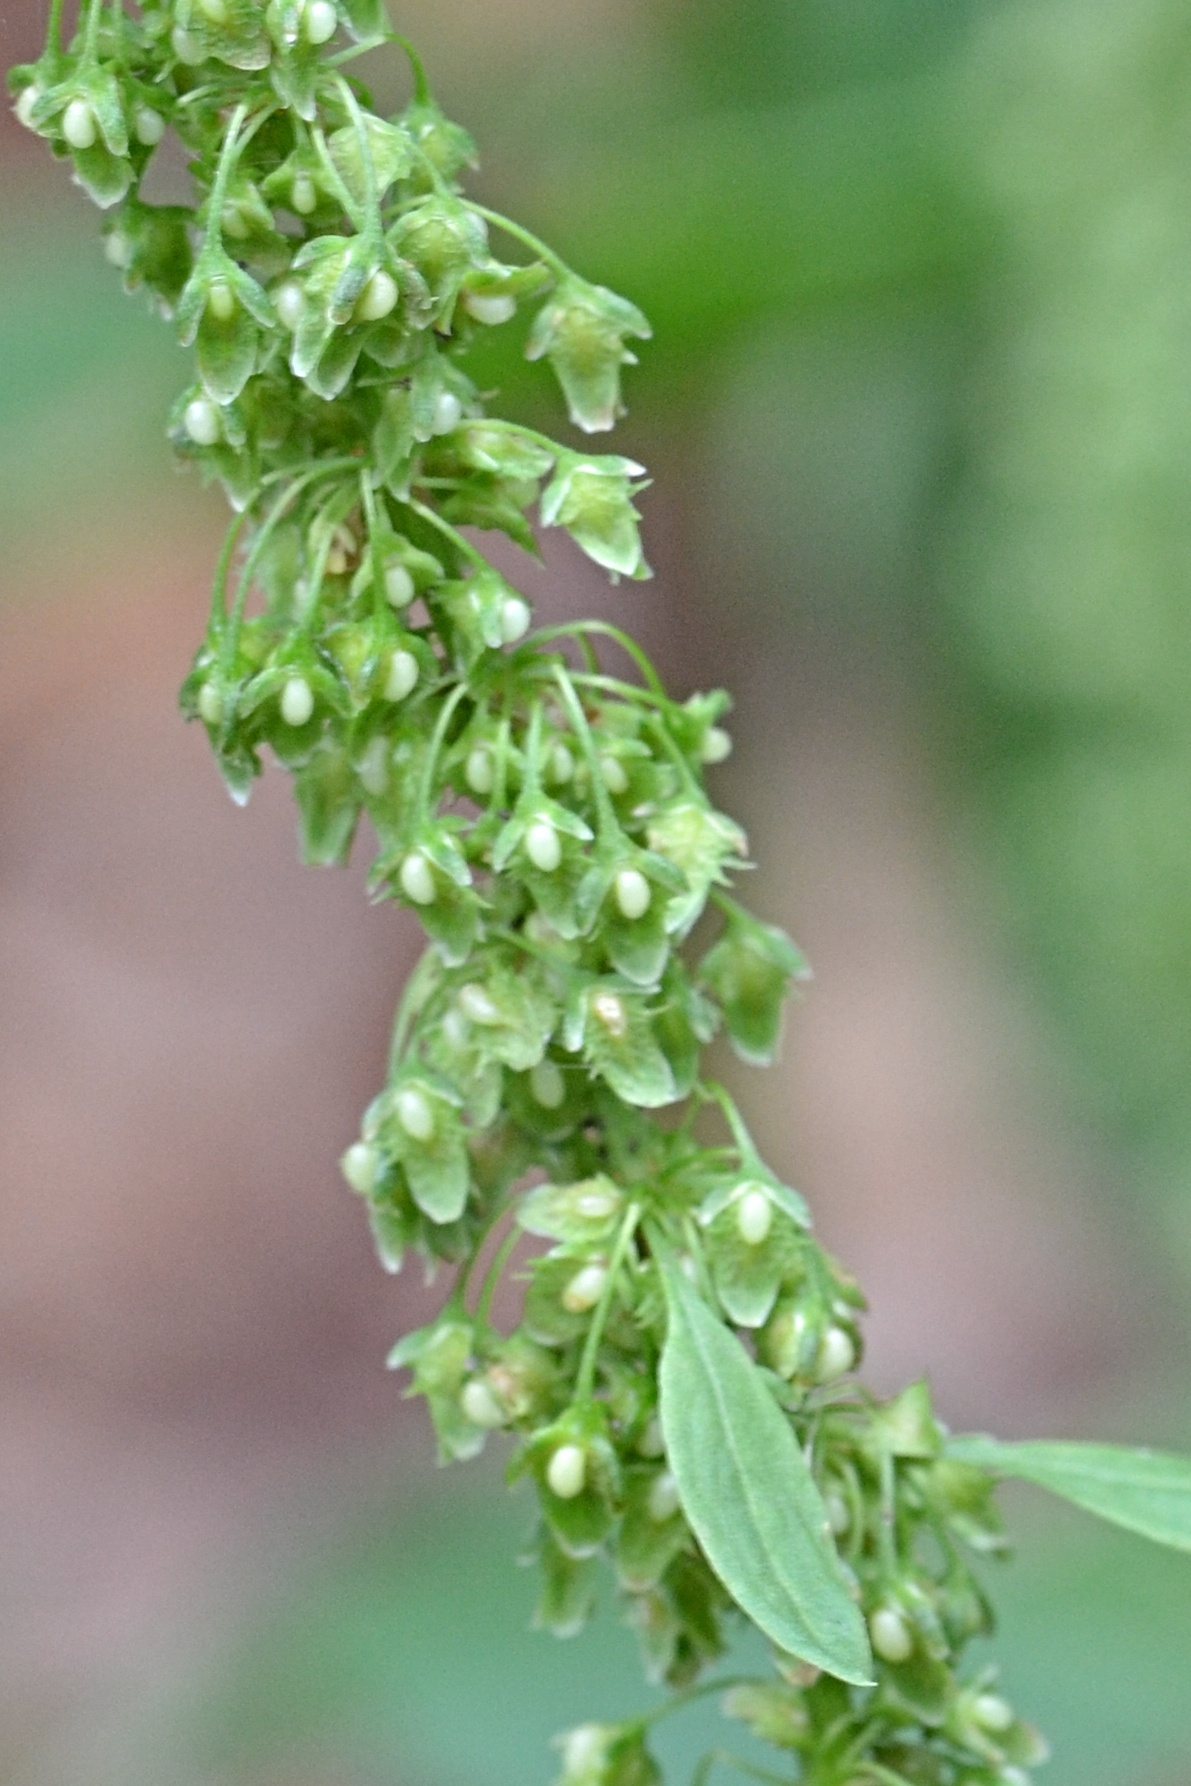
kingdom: Plantae
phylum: Tracheophyta
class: Magnoliopsida
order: Caryophyllales
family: Polygonaceae
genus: Rumex
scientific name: Rumex obtusifolius
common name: Bitter dock
